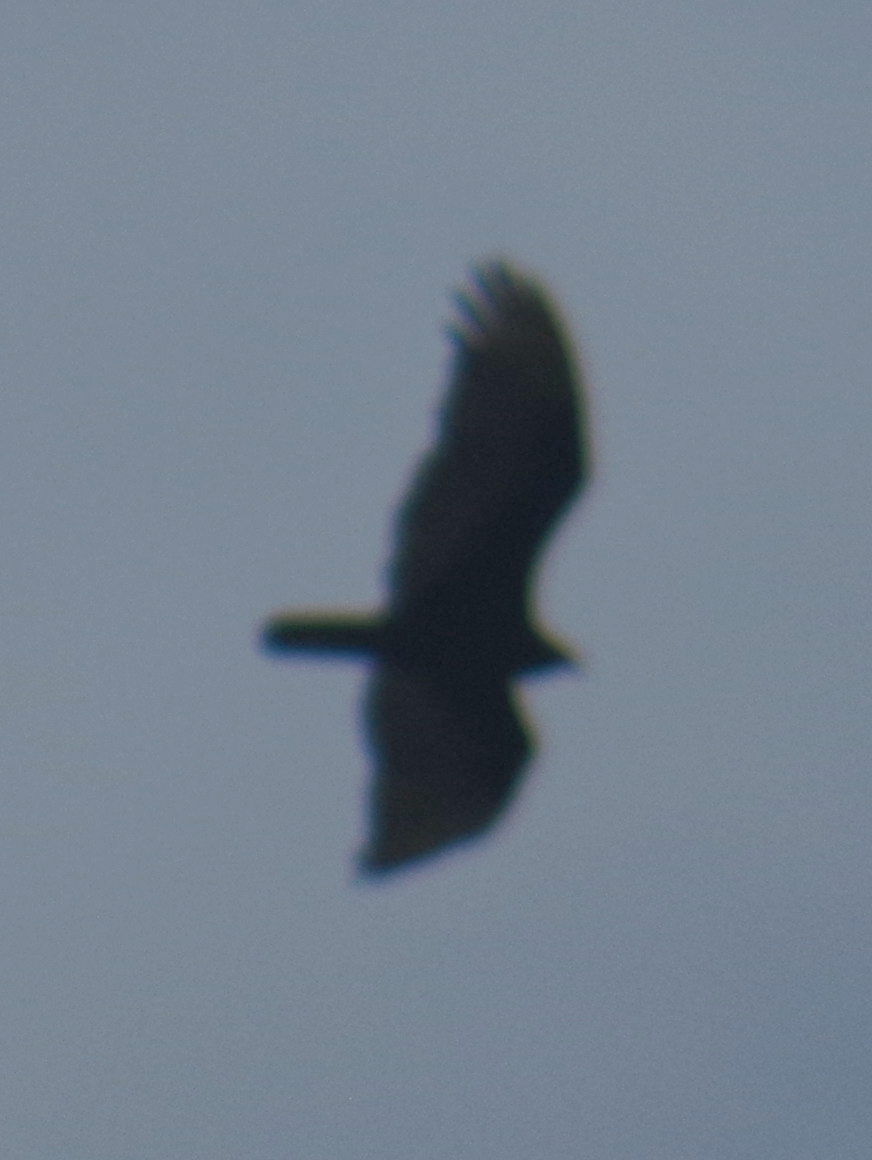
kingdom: Animalia
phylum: Chordata
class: Aves
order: Accipitriformes
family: Cathartidae
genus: Cathartes
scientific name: Cathartes aura
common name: Turkey vulture
